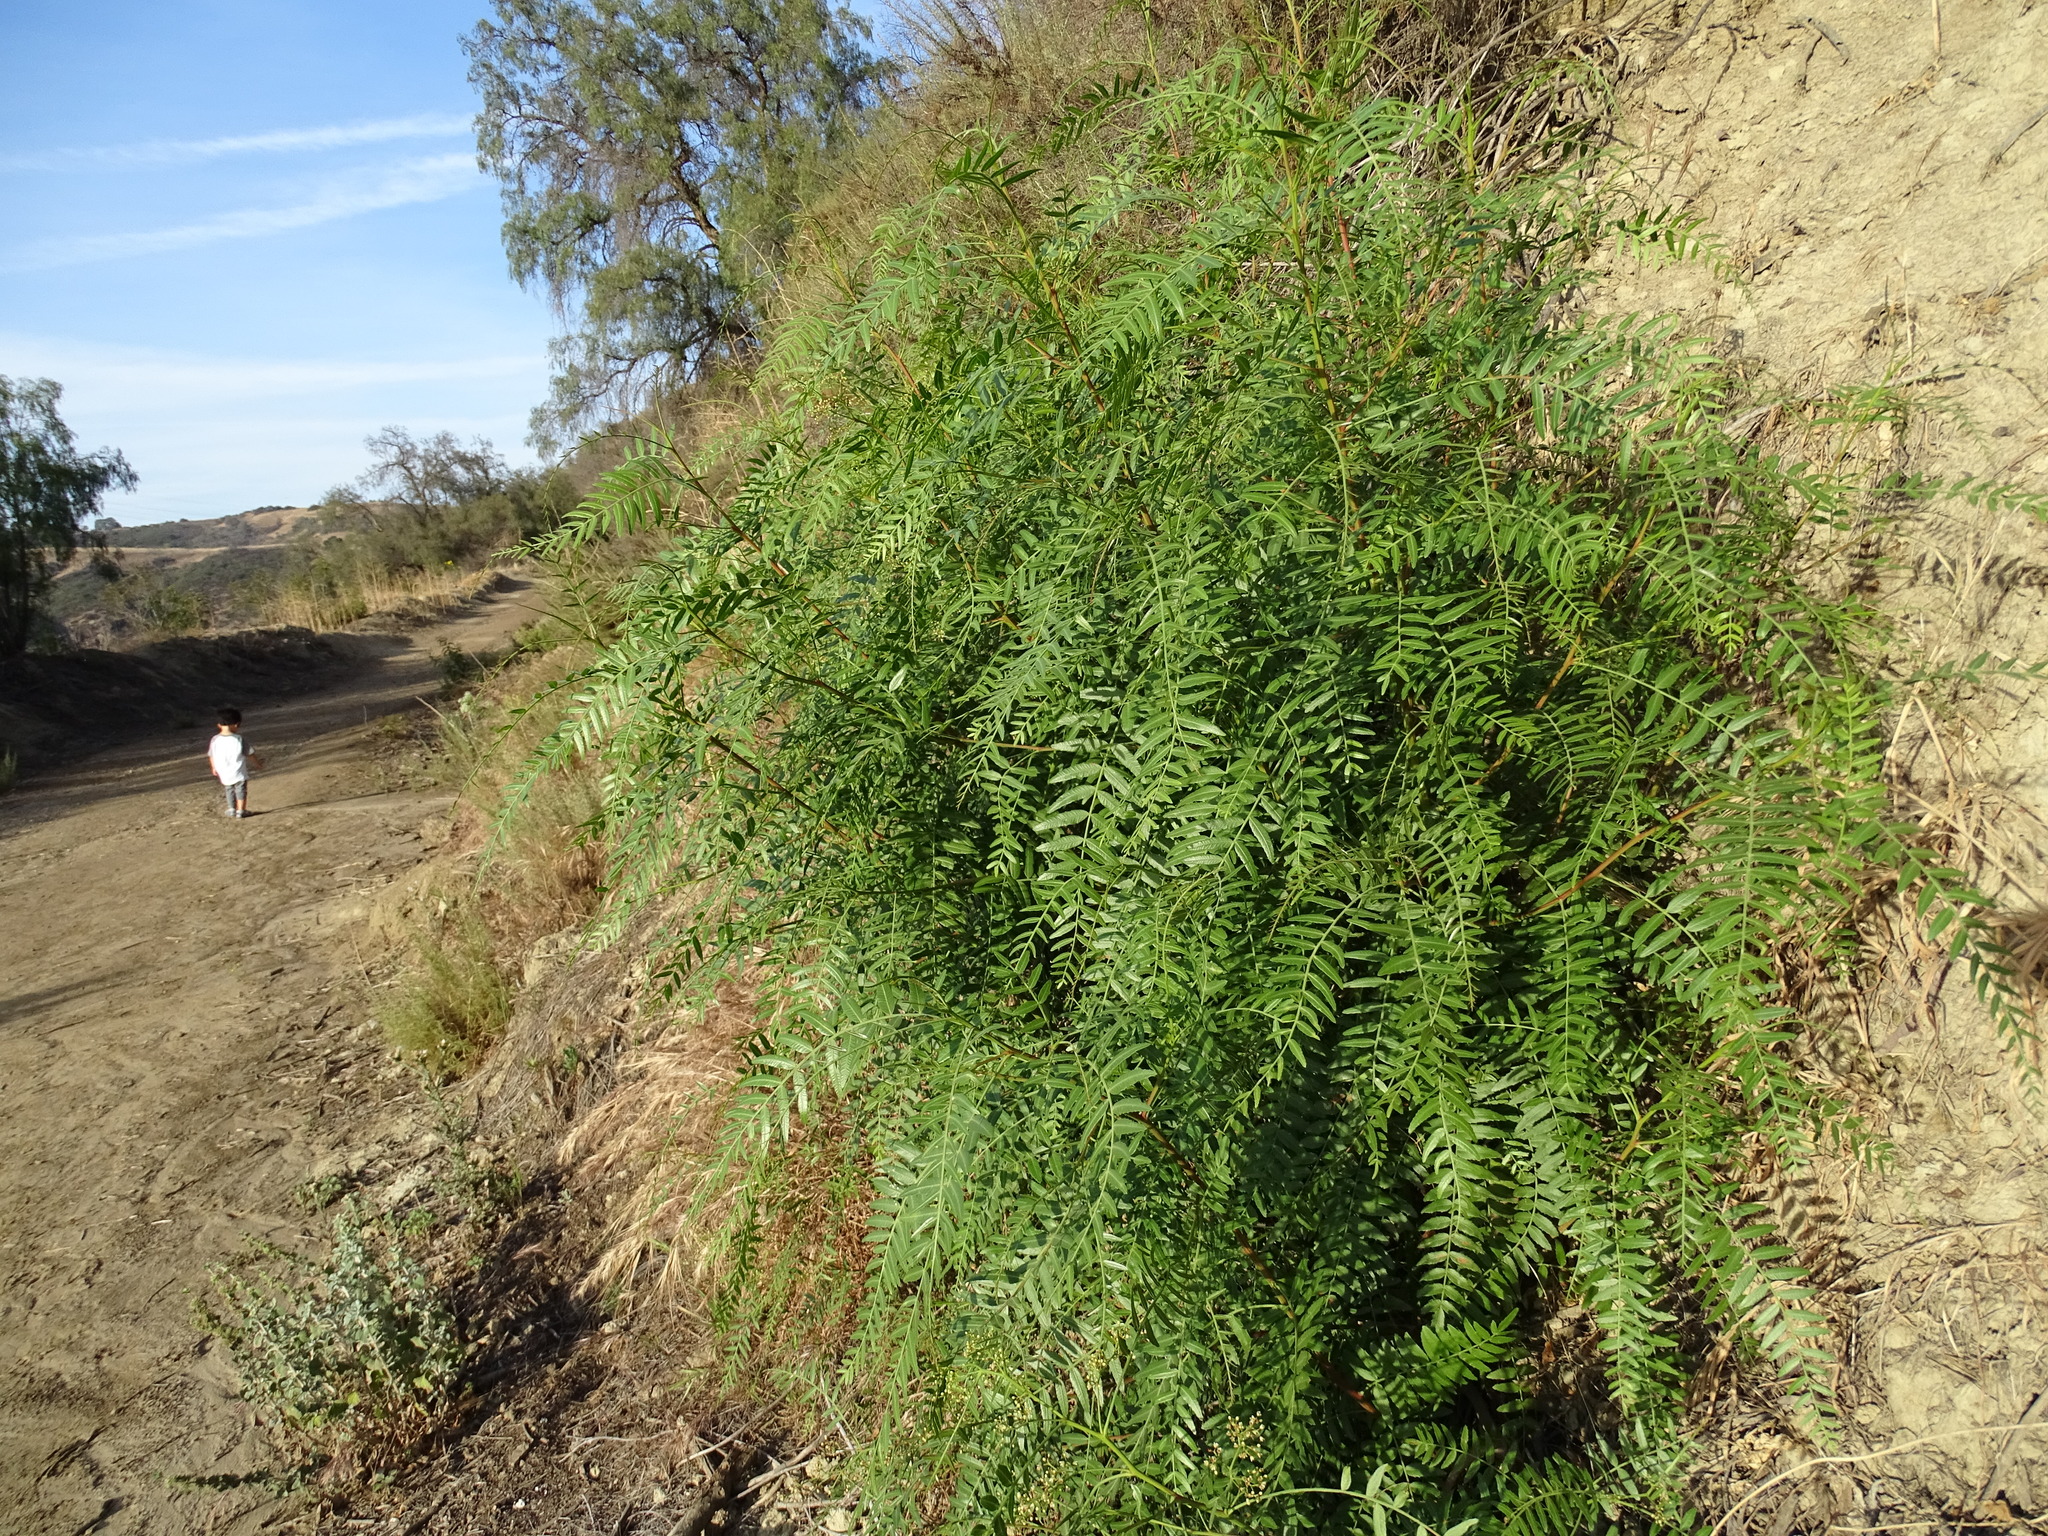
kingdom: Plantae
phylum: Tracheophyta
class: Magnoliopsida
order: Sapindales
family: Anacardiaceae
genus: Schinus
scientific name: Schinus molle
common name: Peruvian peppertree
